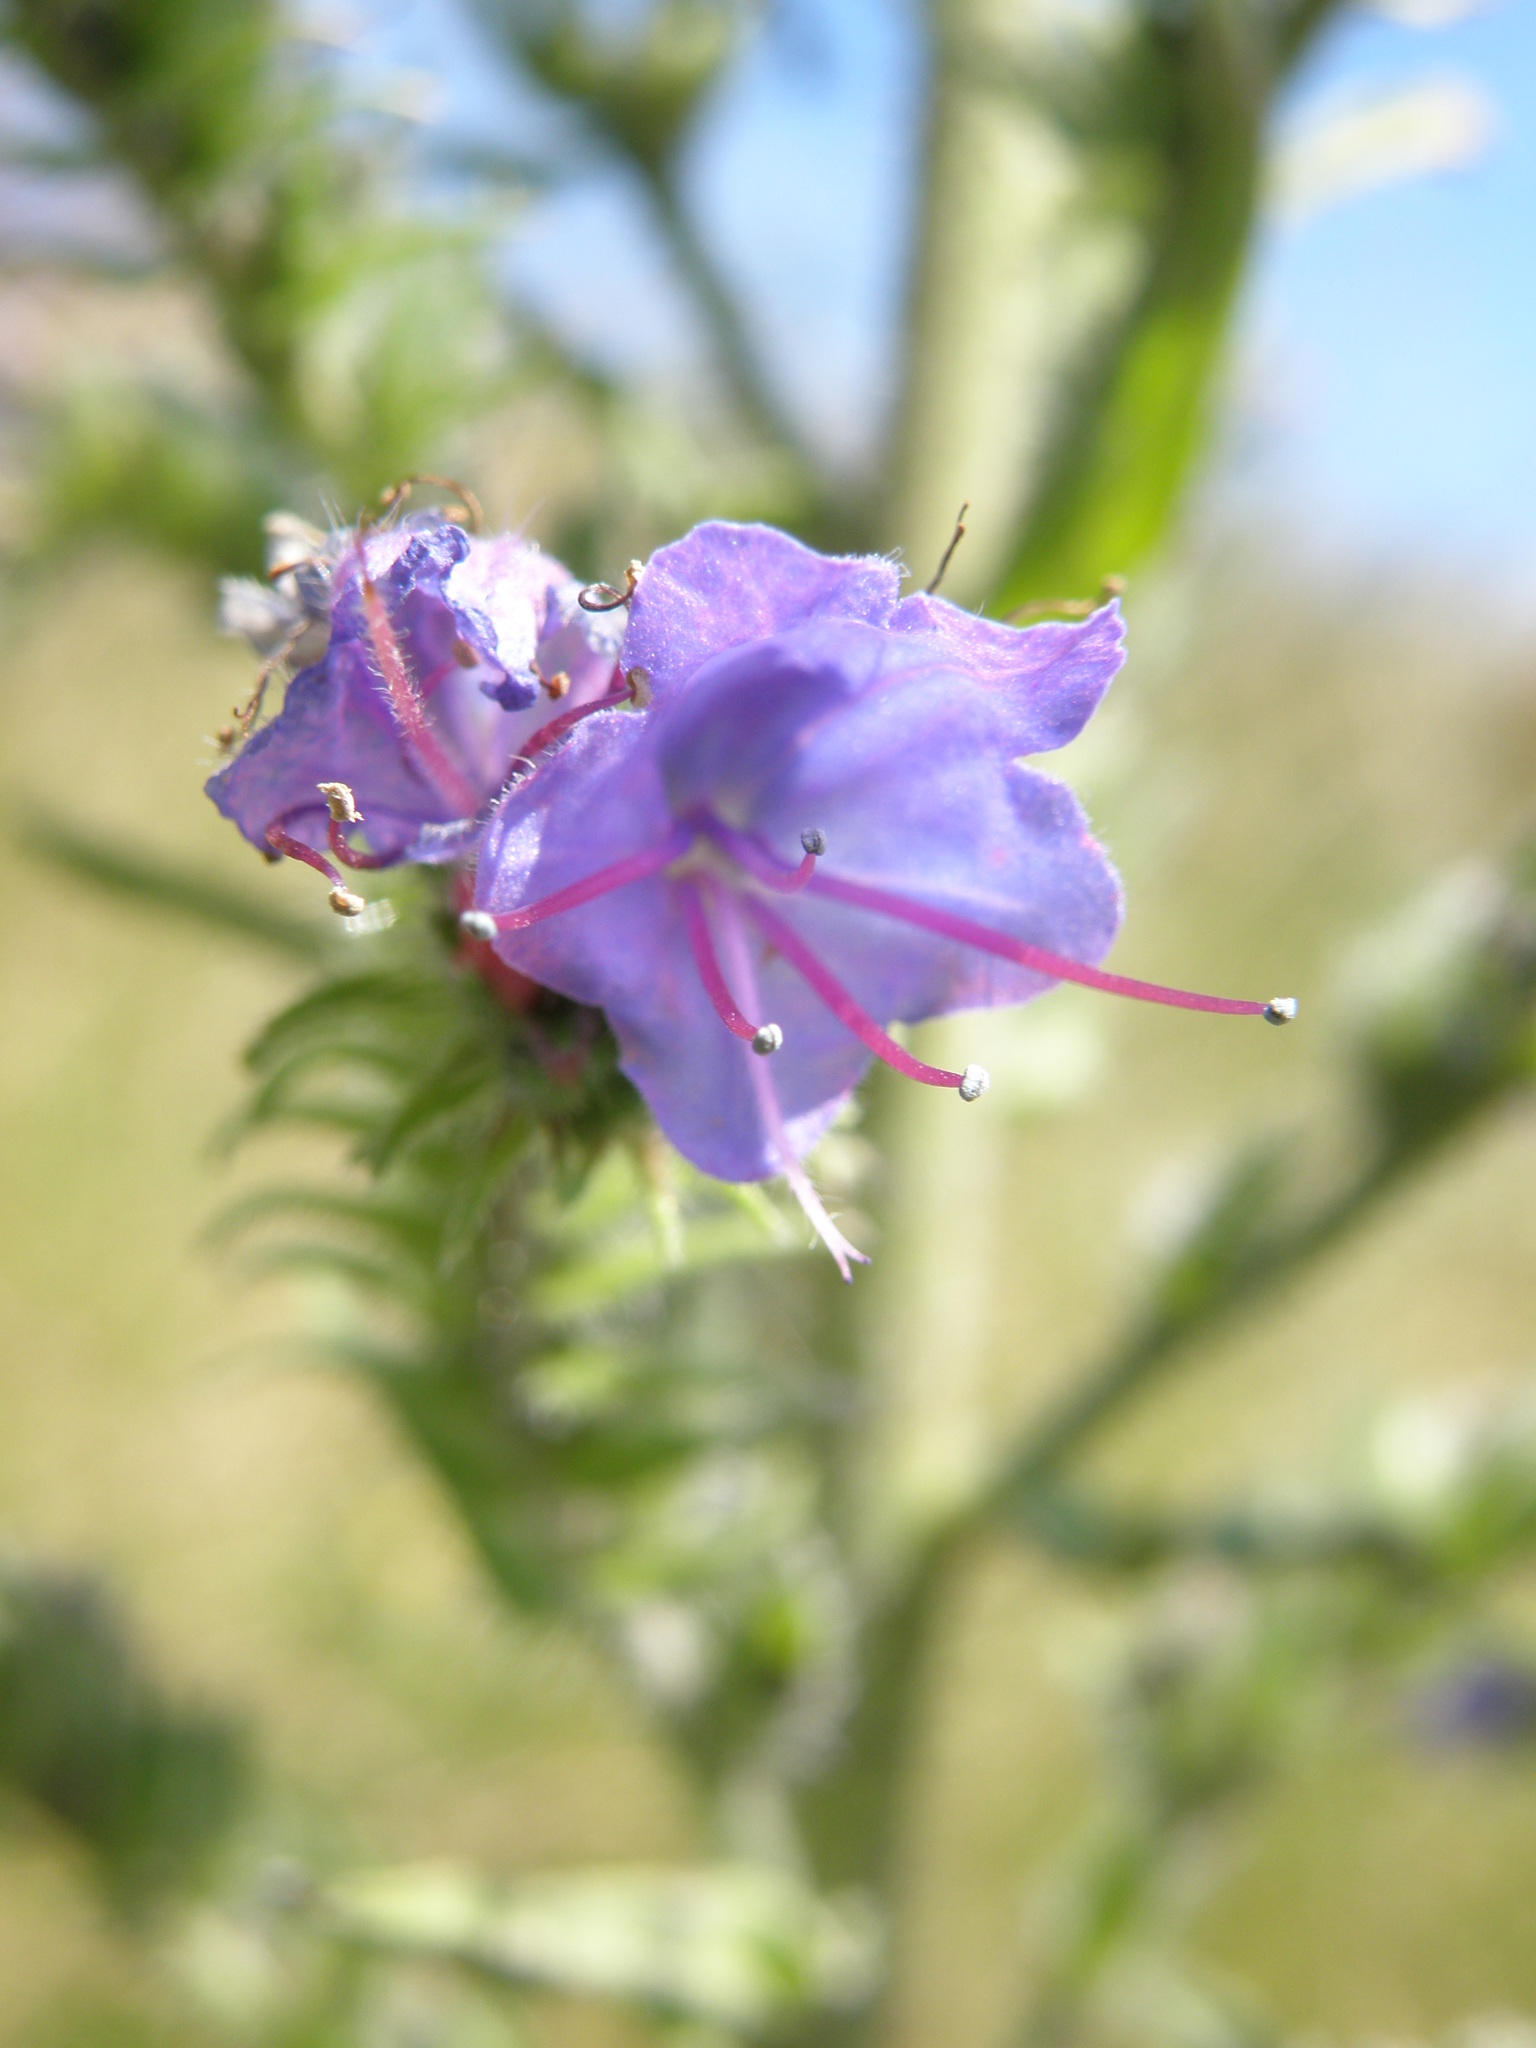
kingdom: Plantae
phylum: Tracheophyta
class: Magnoliopsida
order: Boraginales
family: Boraginaceae
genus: Echium
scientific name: Echium vulgare
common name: Common viper's bugloss
